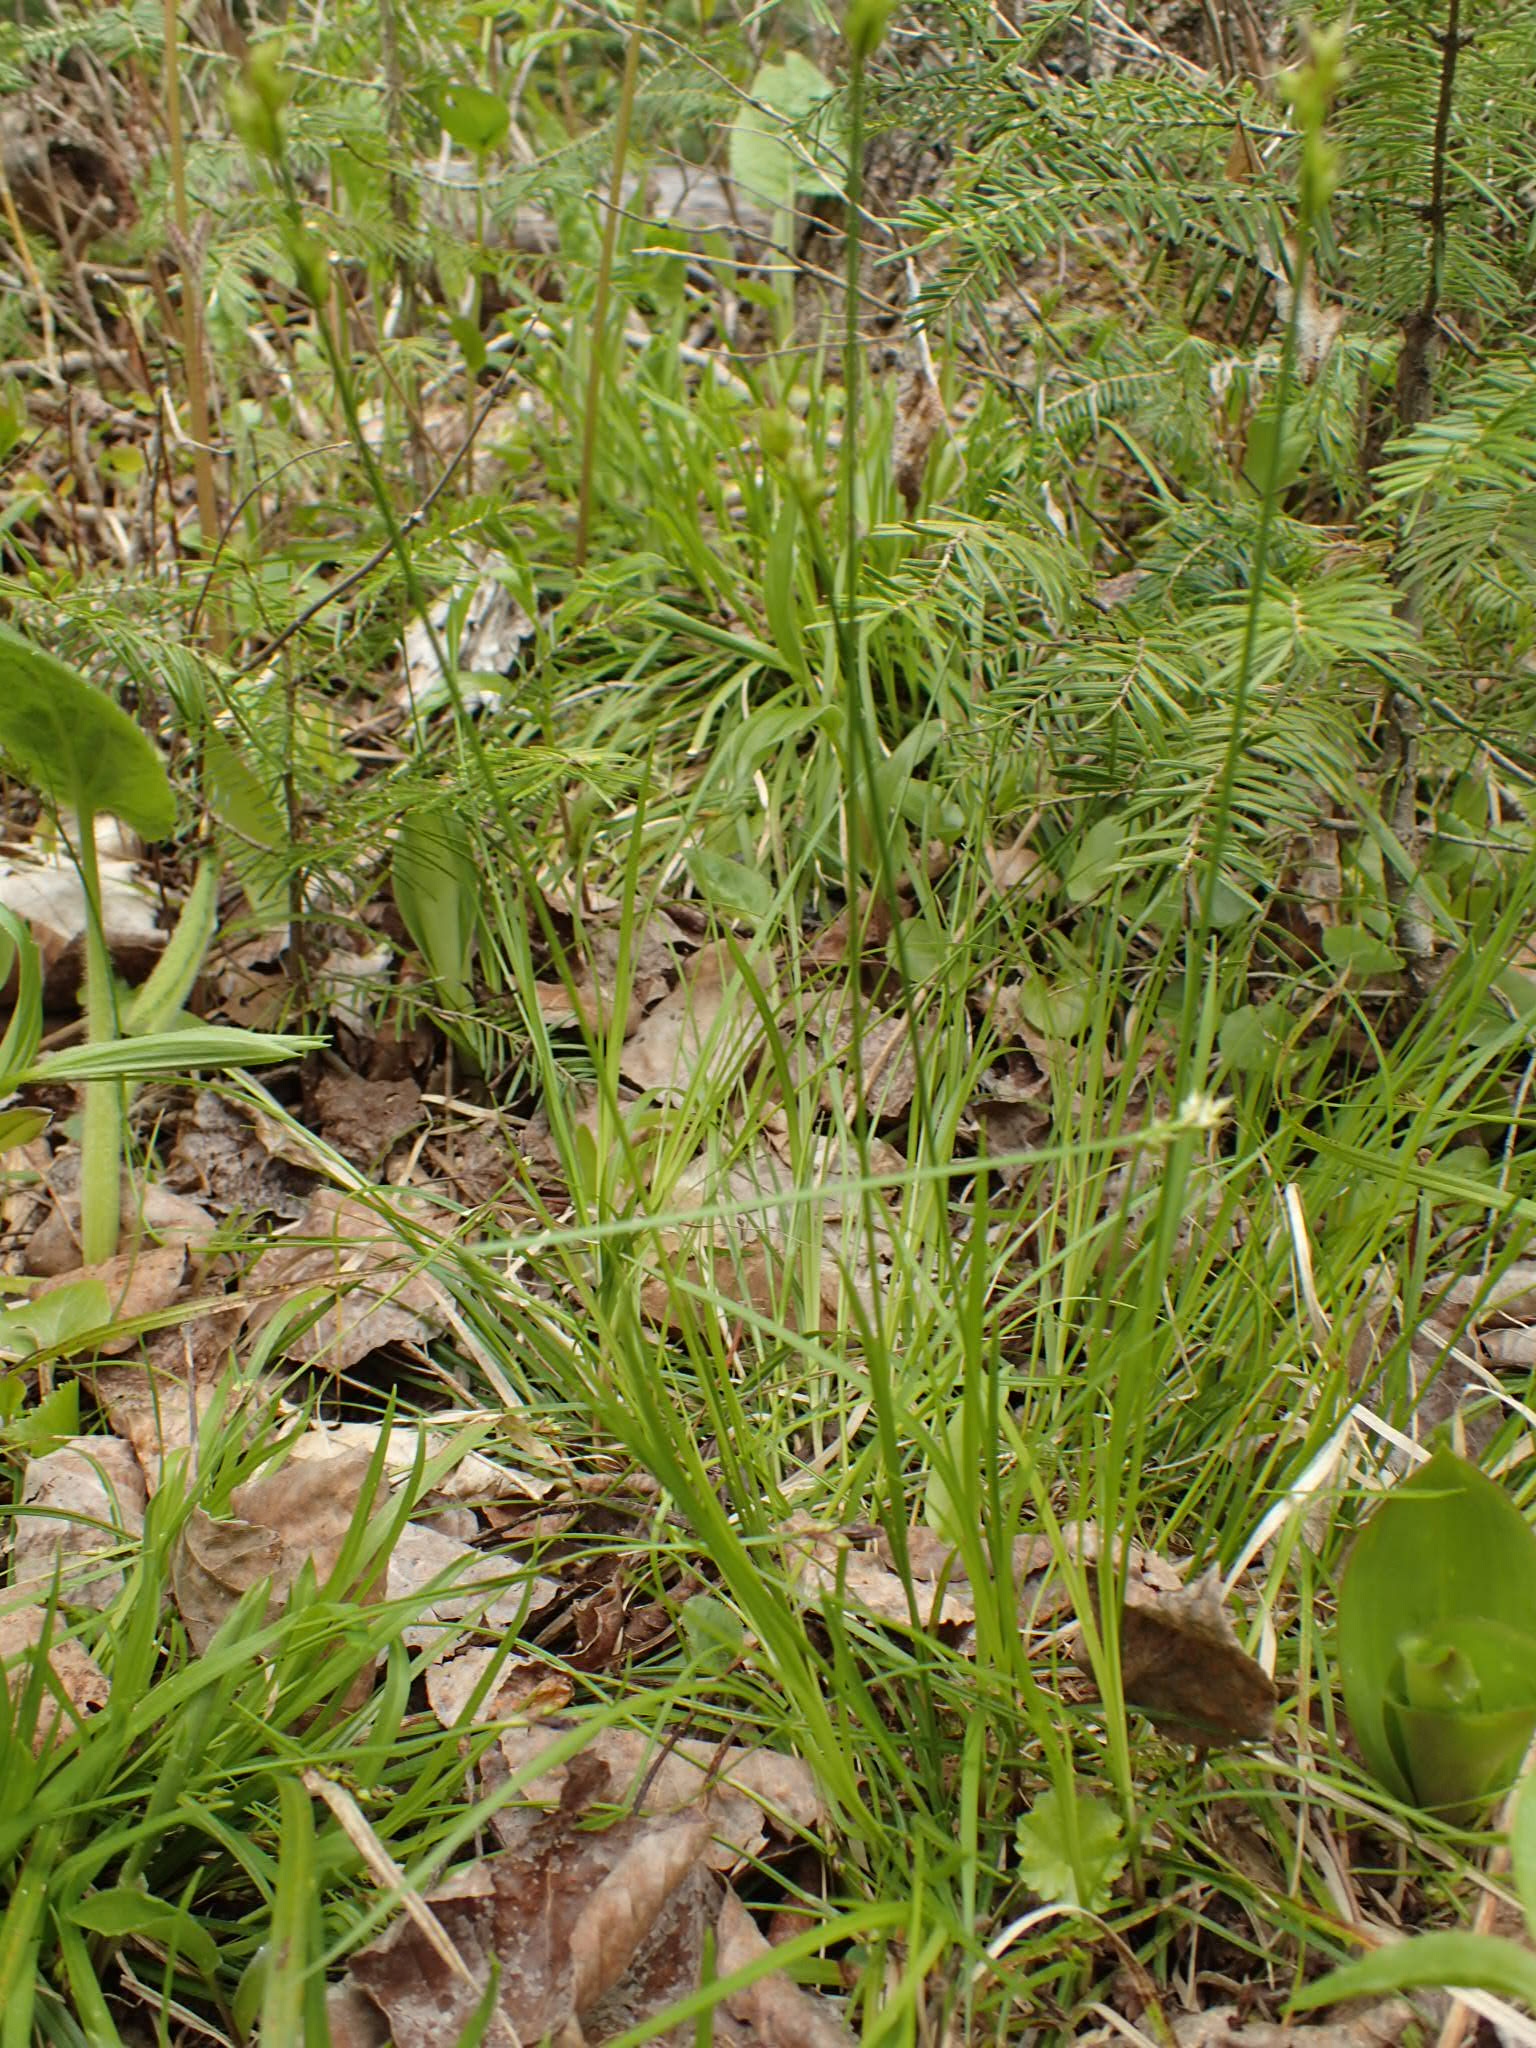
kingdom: Plantae
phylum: Tracheophyta
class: Liliopsida
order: Poales
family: Cyperaceae
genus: Carex
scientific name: Carex peckii
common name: Peck's oak sedge
